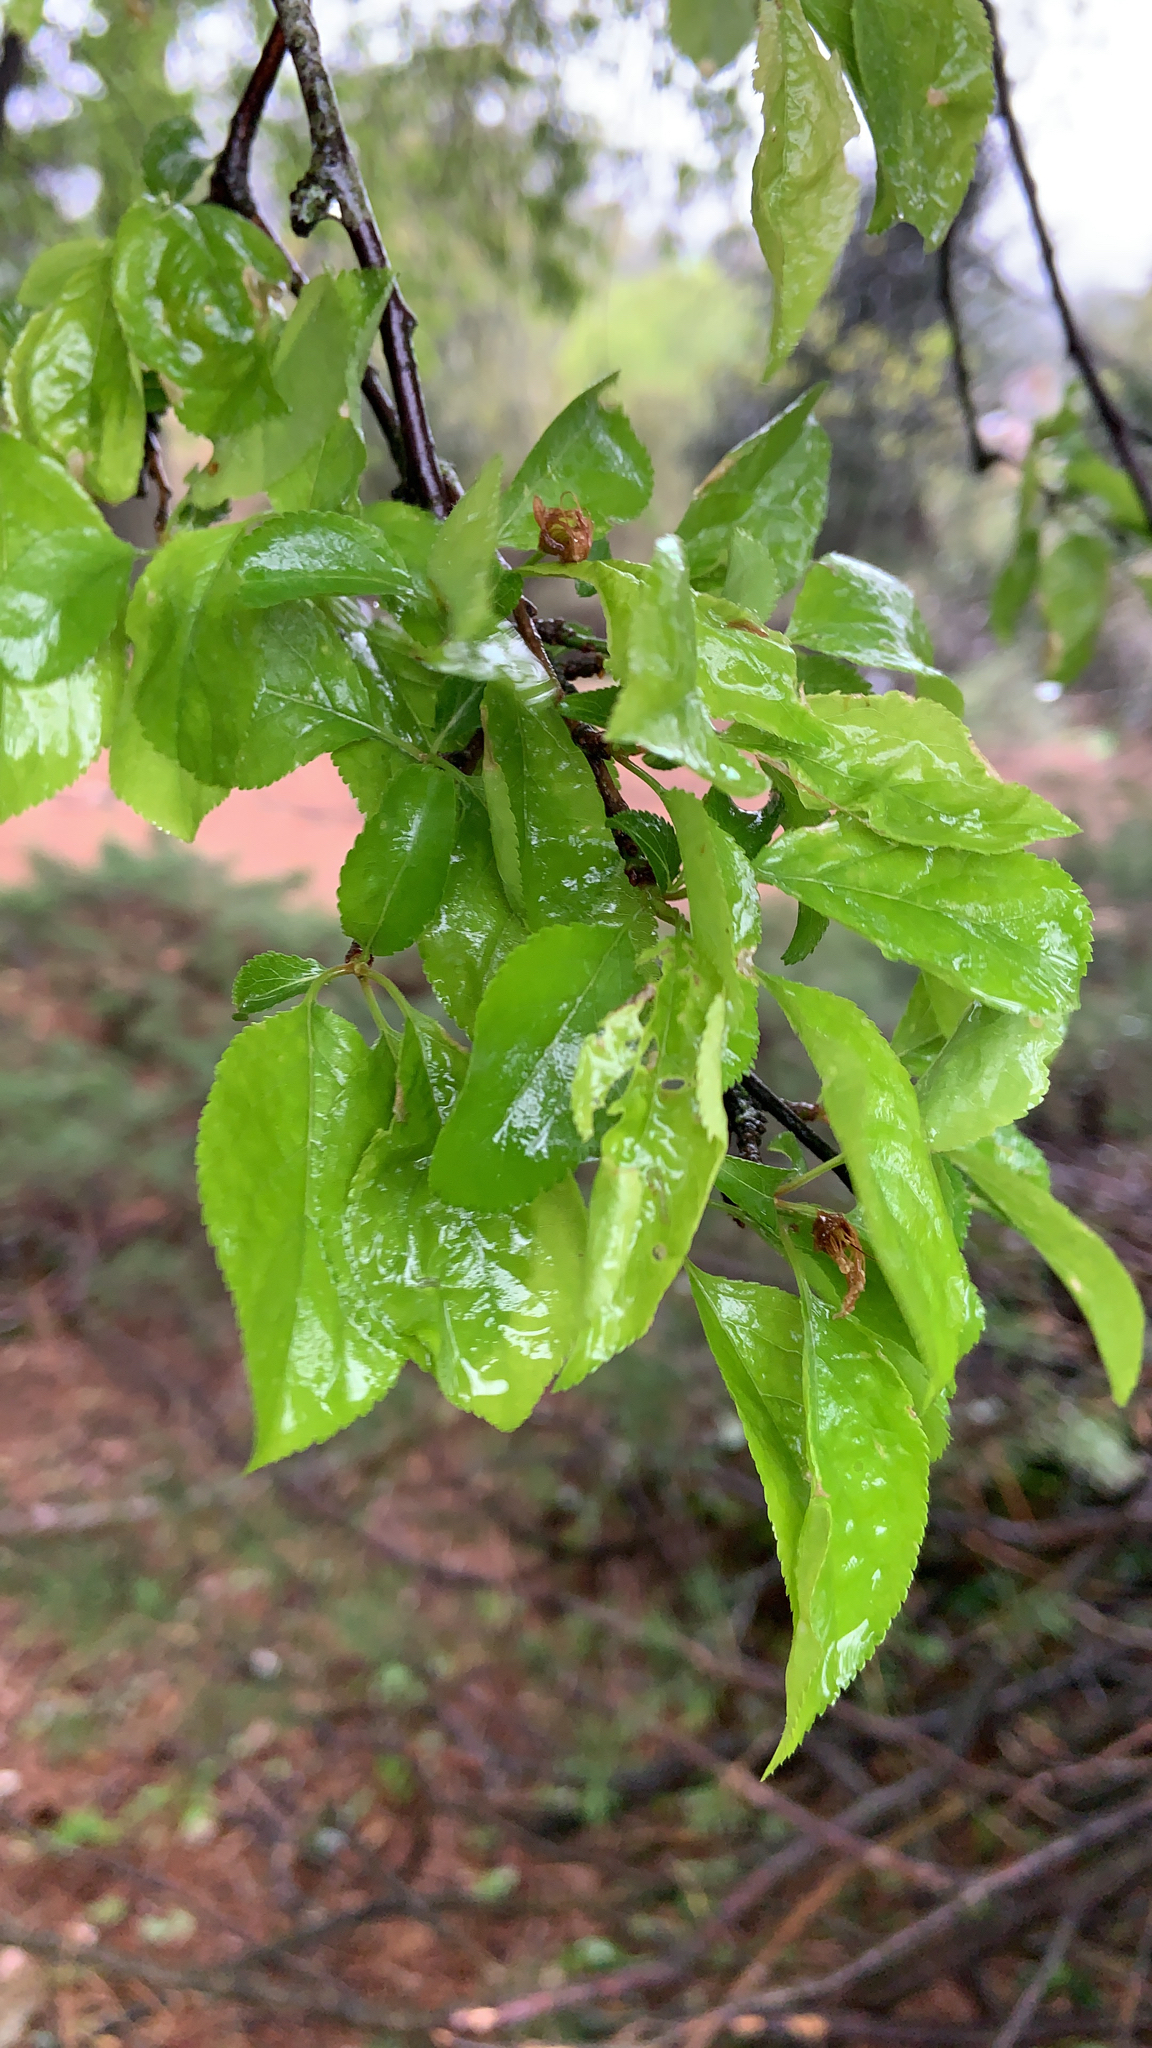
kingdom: Plantae
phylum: Tracheophyta
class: Magnoliopsida
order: Rosales
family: Rosaceae
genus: Prunus
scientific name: Prunus cerasifera
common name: Cherry plum
